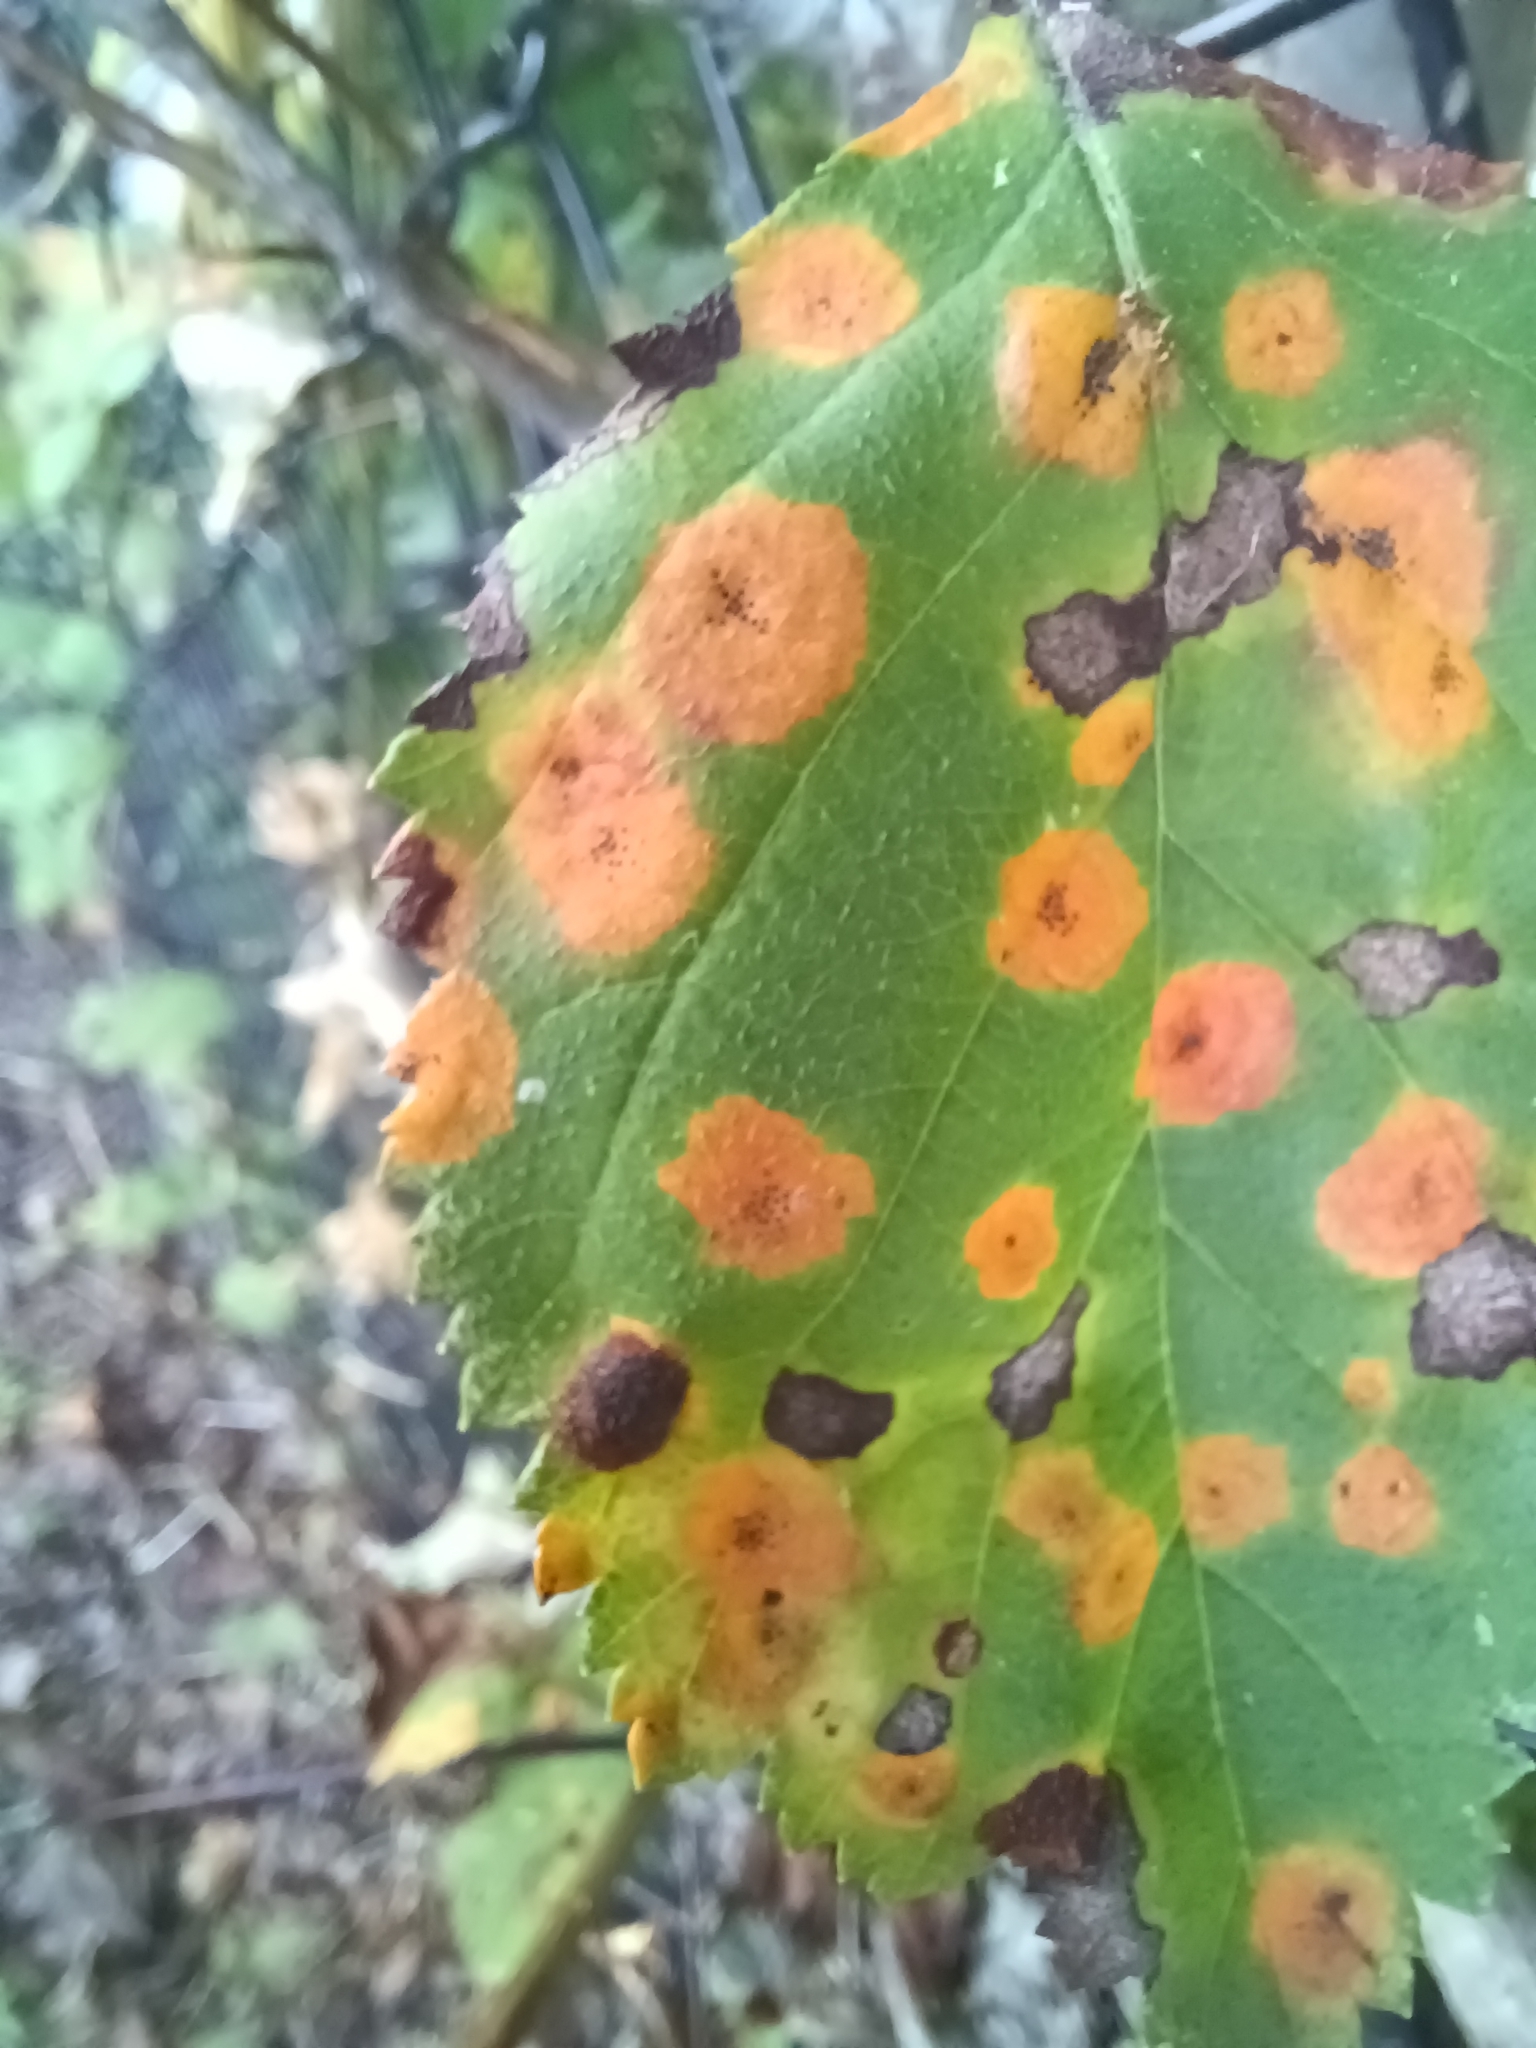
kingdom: Fungi
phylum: Basidiomycota
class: Pucciniomycetes
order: Pucciniales
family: Gymnosporangiaceae
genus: Gymnosporangium
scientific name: Gymnosporangium globosum
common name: Juniper-hawthorn rust
